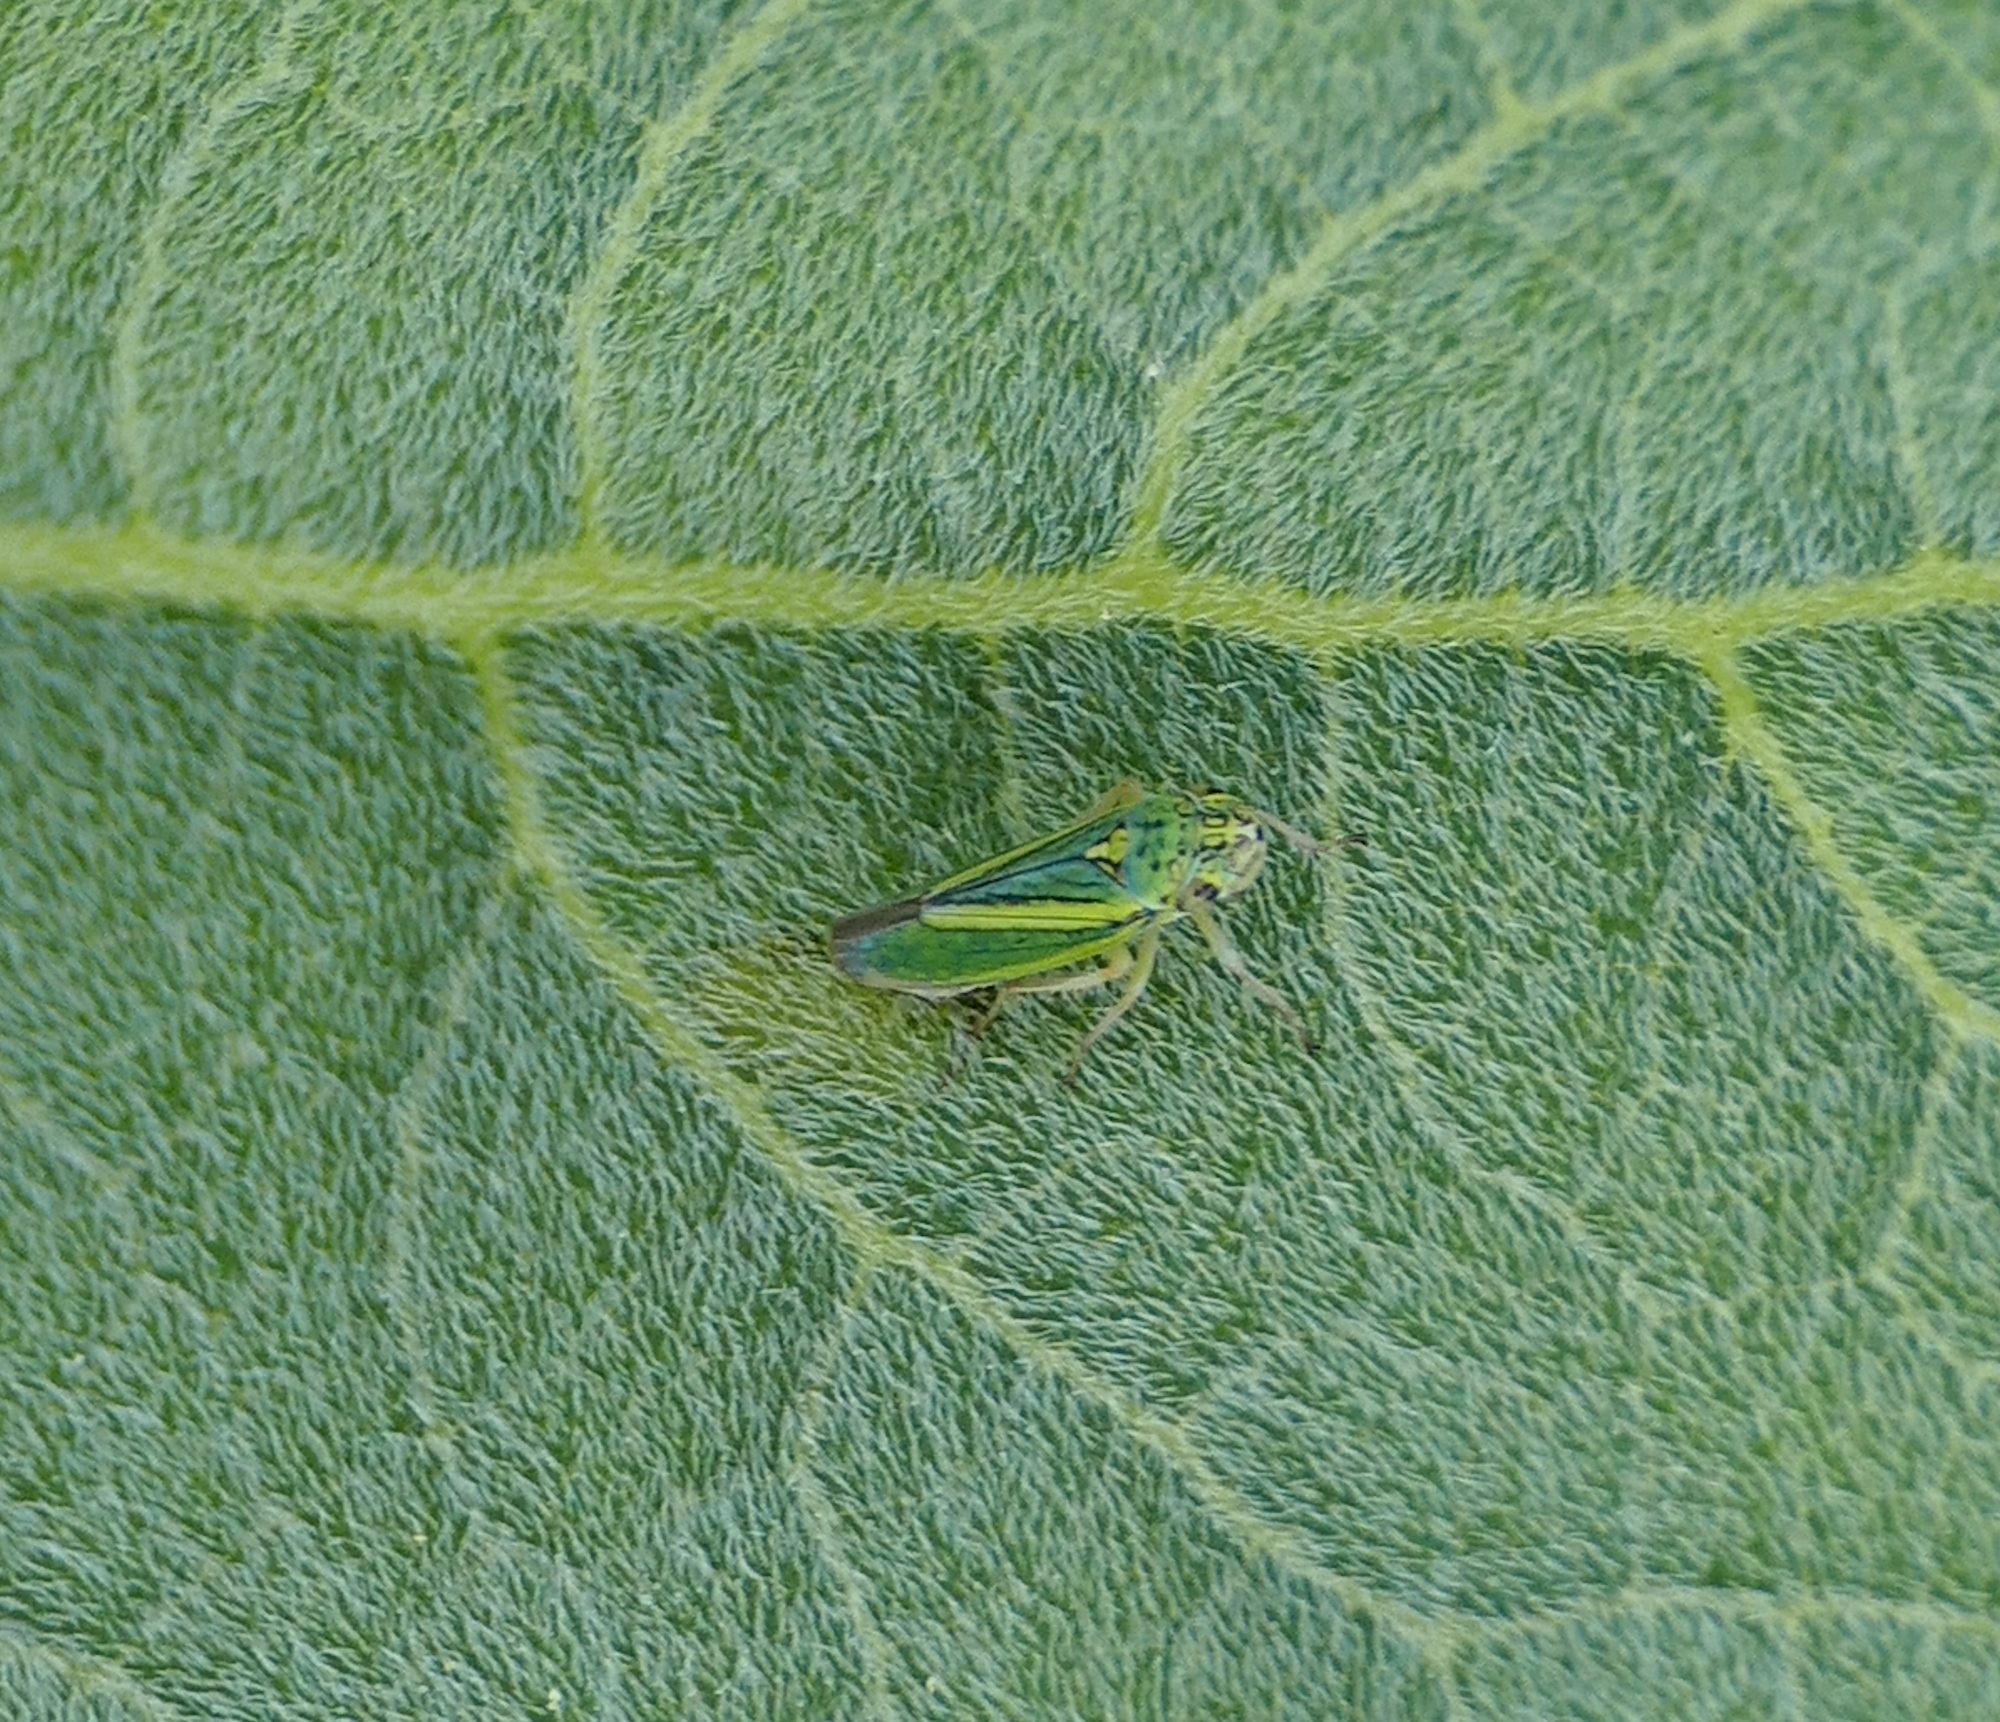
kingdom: Animalia
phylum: Arthropoda
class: Insecta
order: Hemiptera
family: Cicadellidae
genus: Graphocephala
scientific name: Graphocephala lugubris
